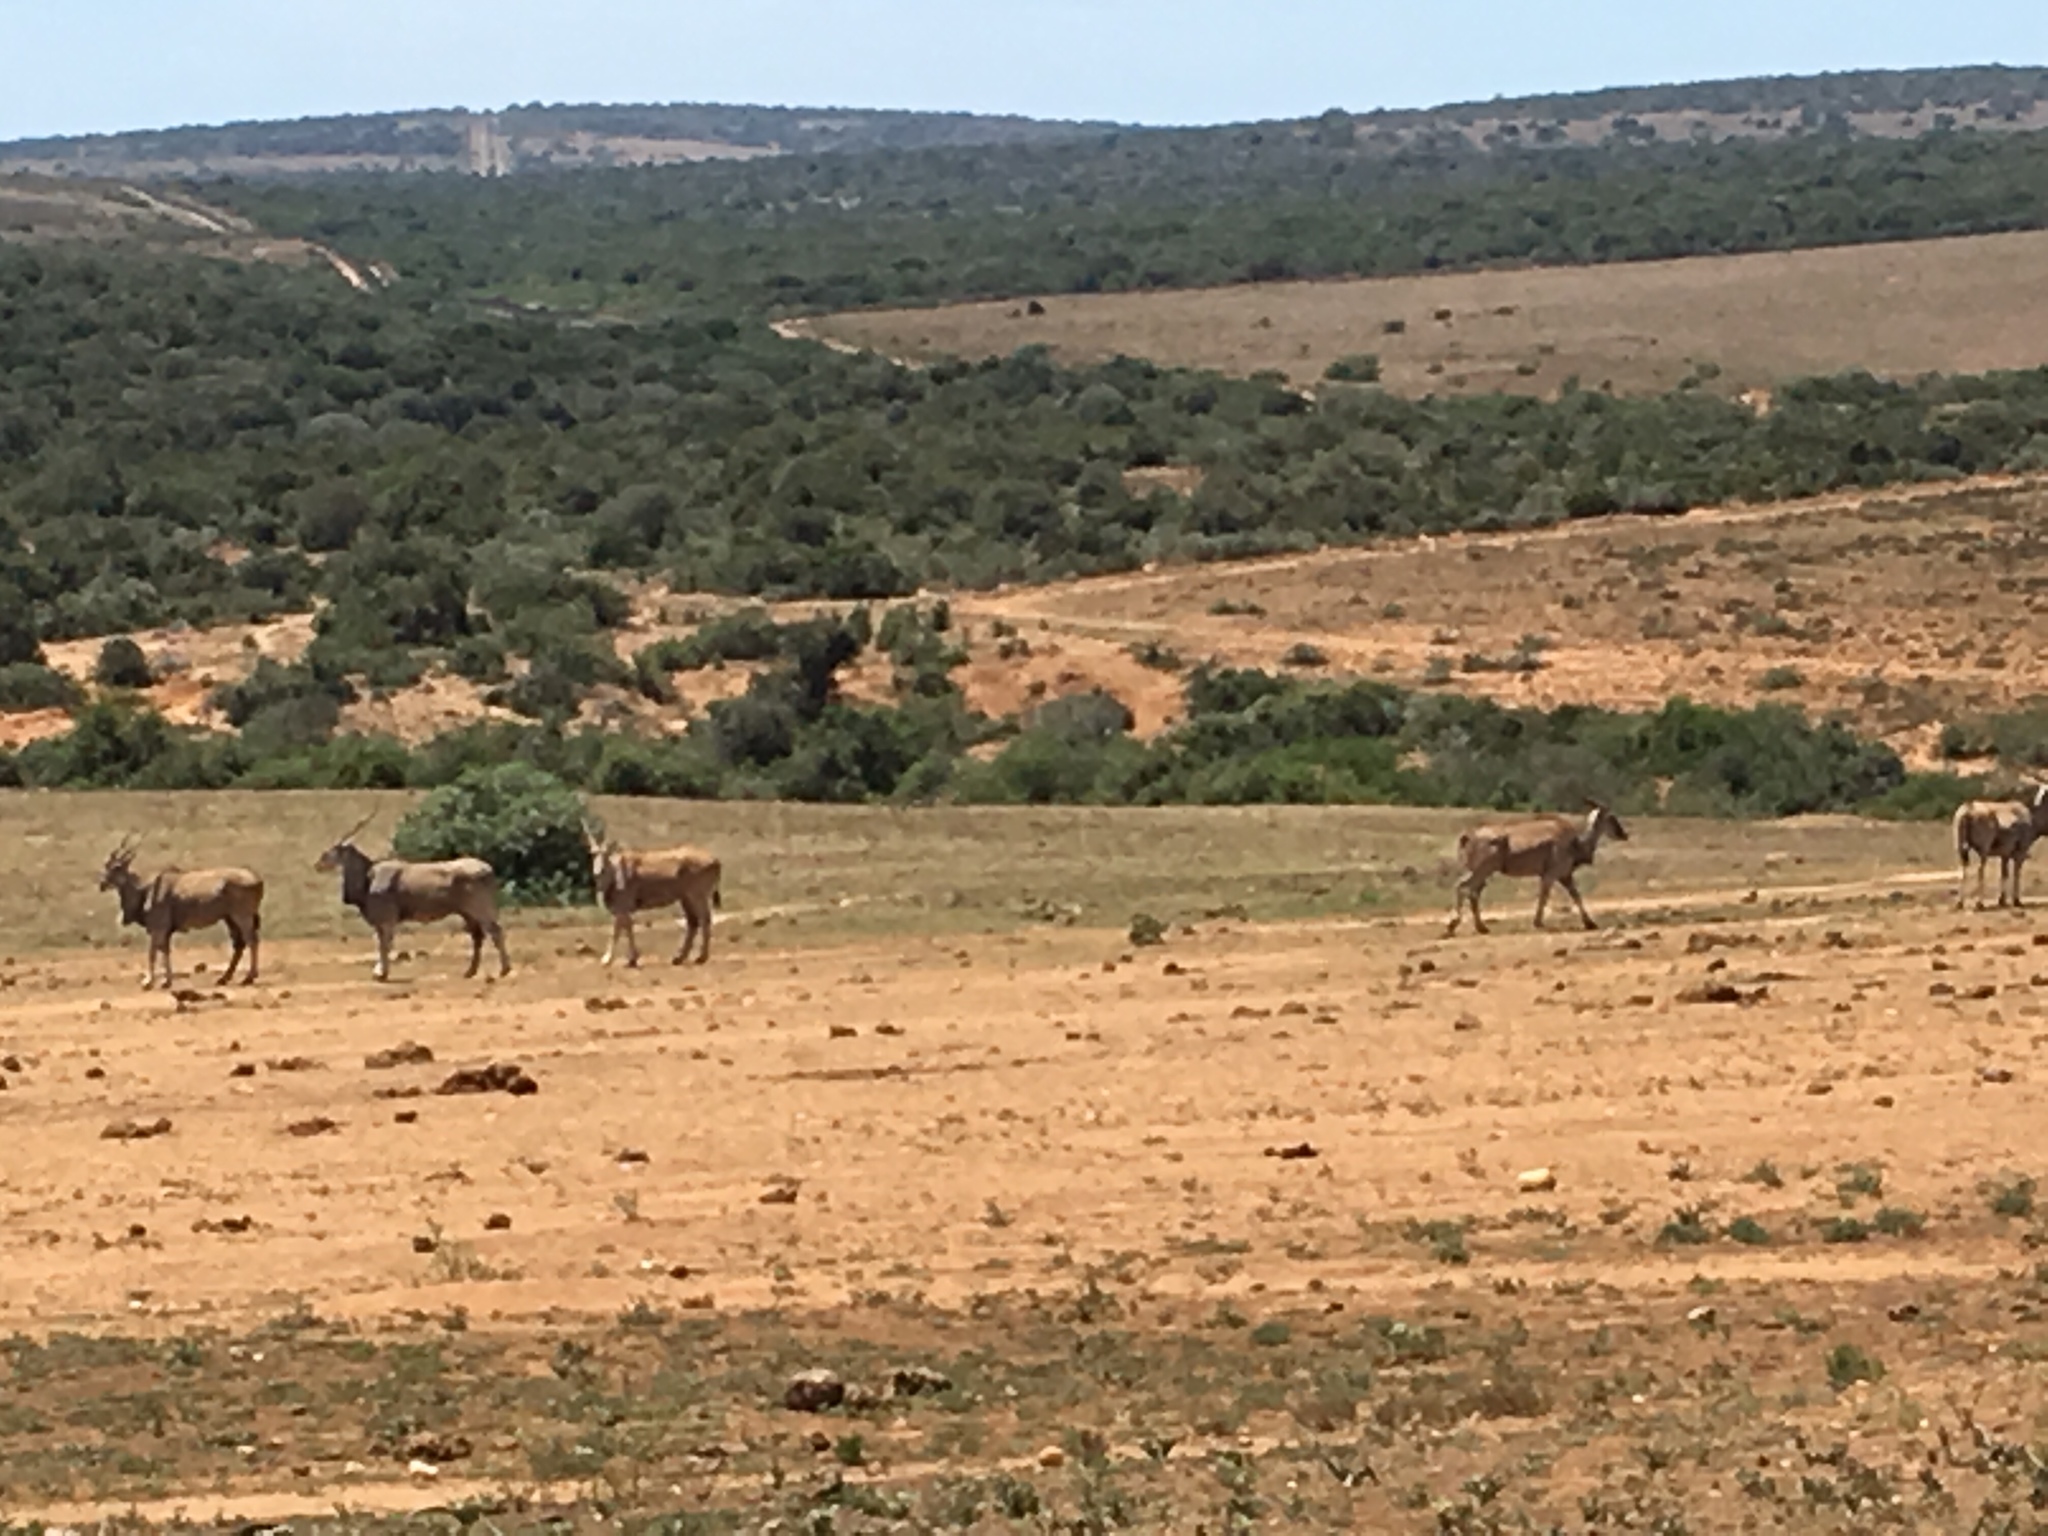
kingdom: Animalia
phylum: Chordata
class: Mammalia
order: Artiodactyla
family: Bovidae
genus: Taurotragus
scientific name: Taurotragus oryx
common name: Common eland
